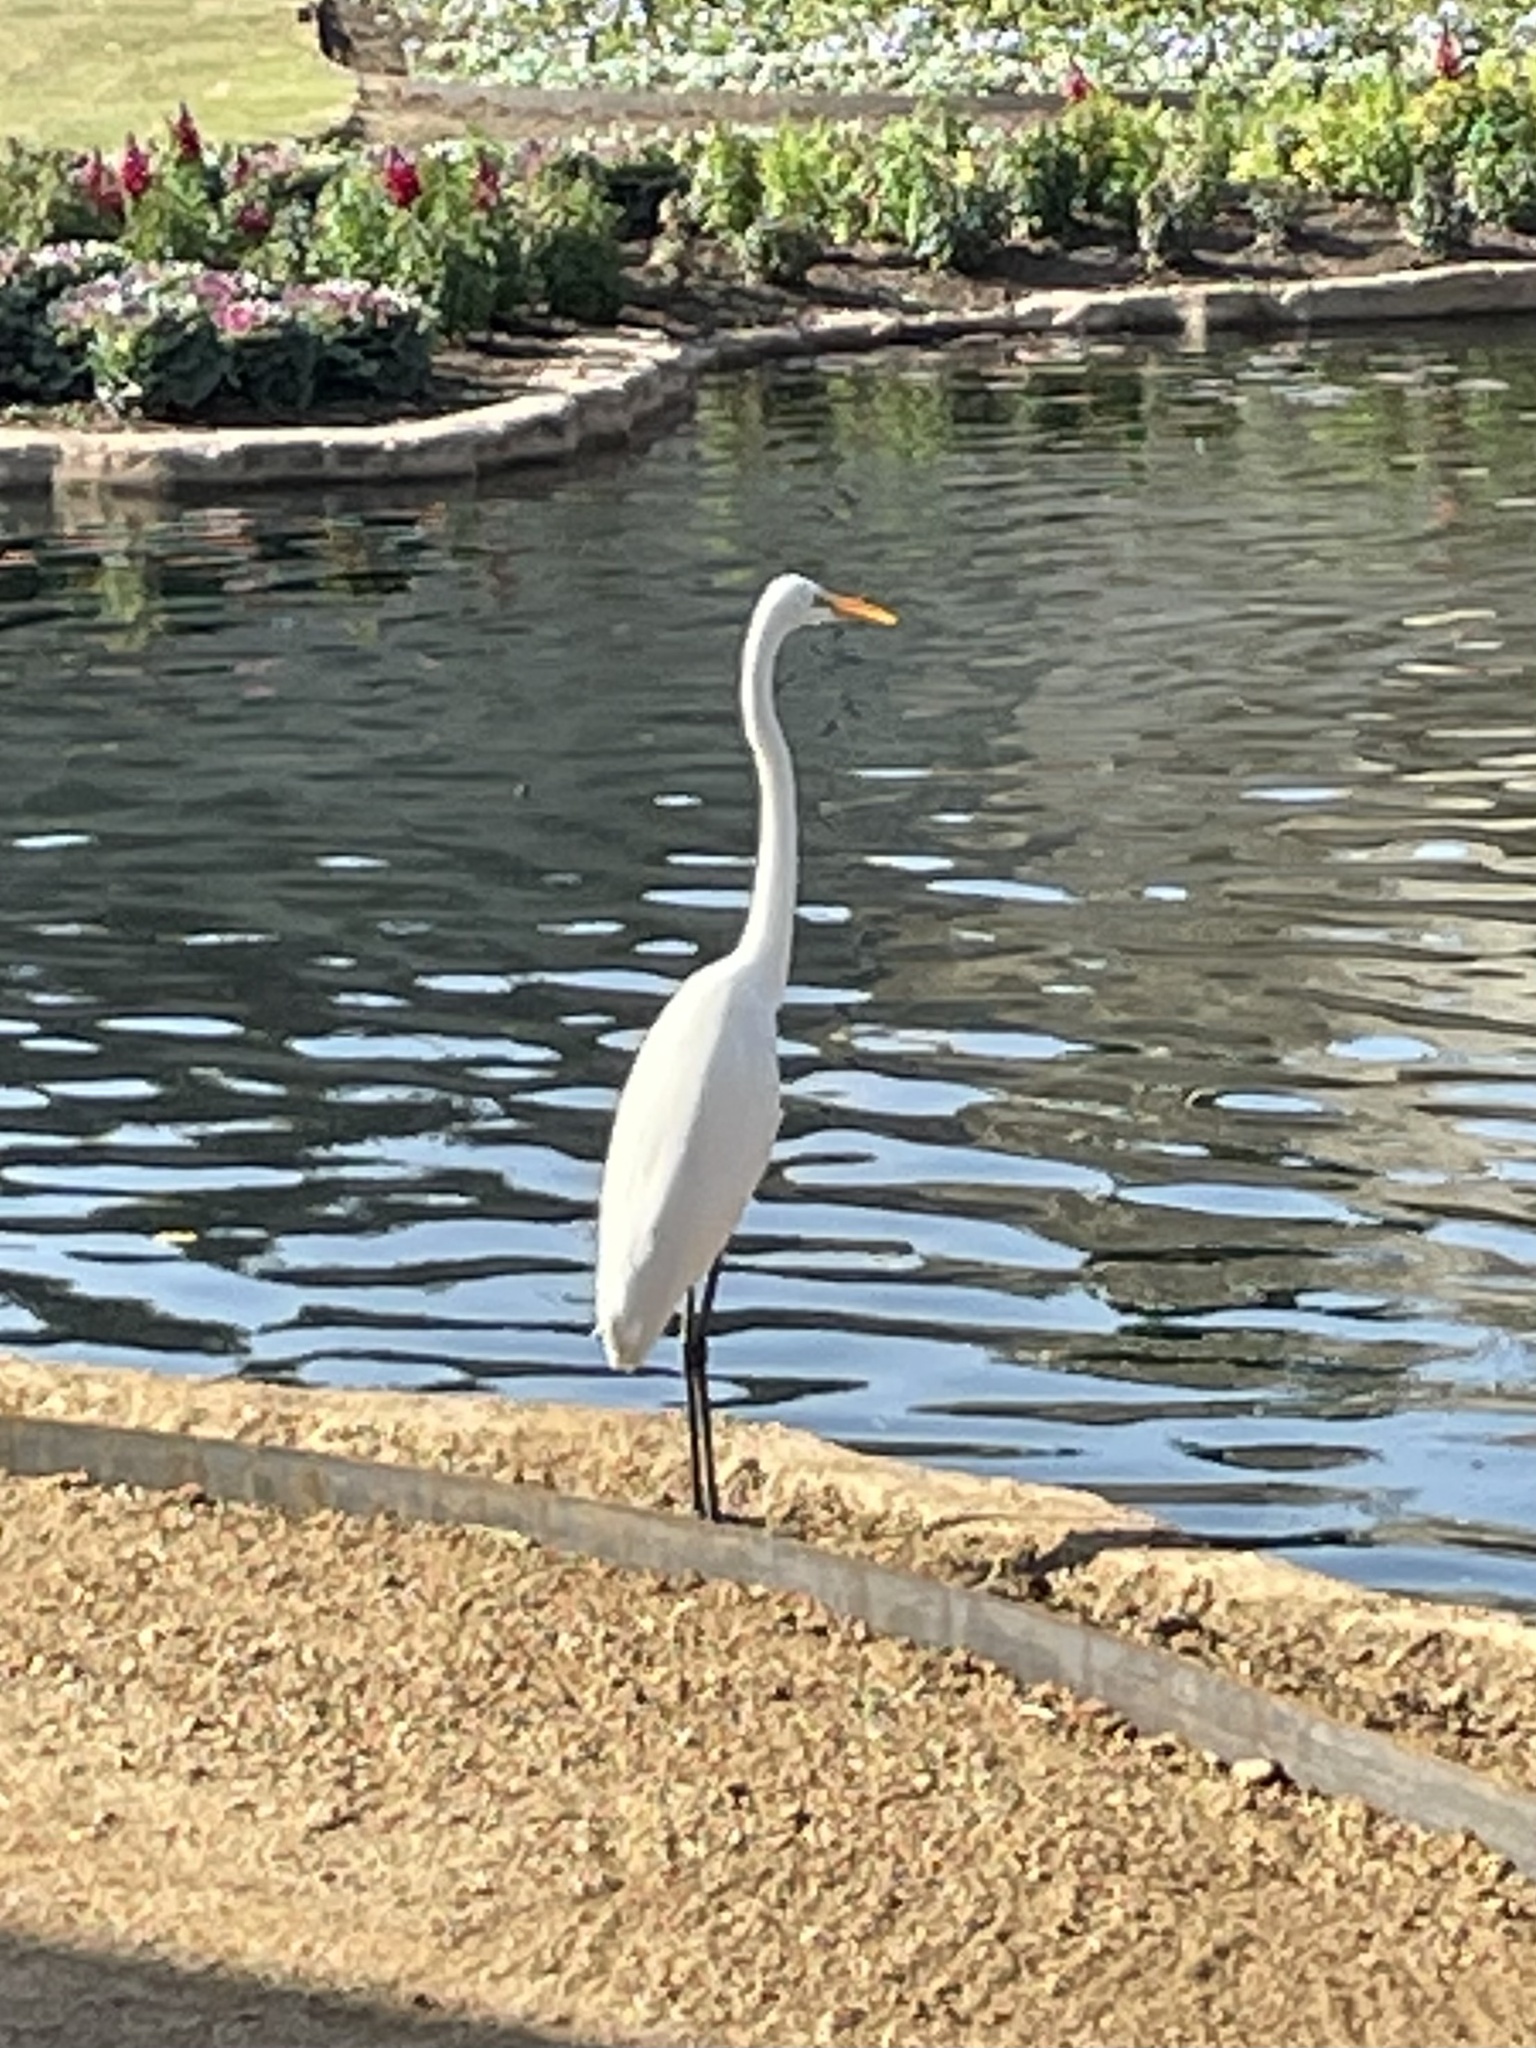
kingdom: Animalia
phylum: Chordata
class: Aves
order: Pelecaniformes
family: Ardeidae
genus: Ardea
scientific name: Ardea alba
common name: Great egret
